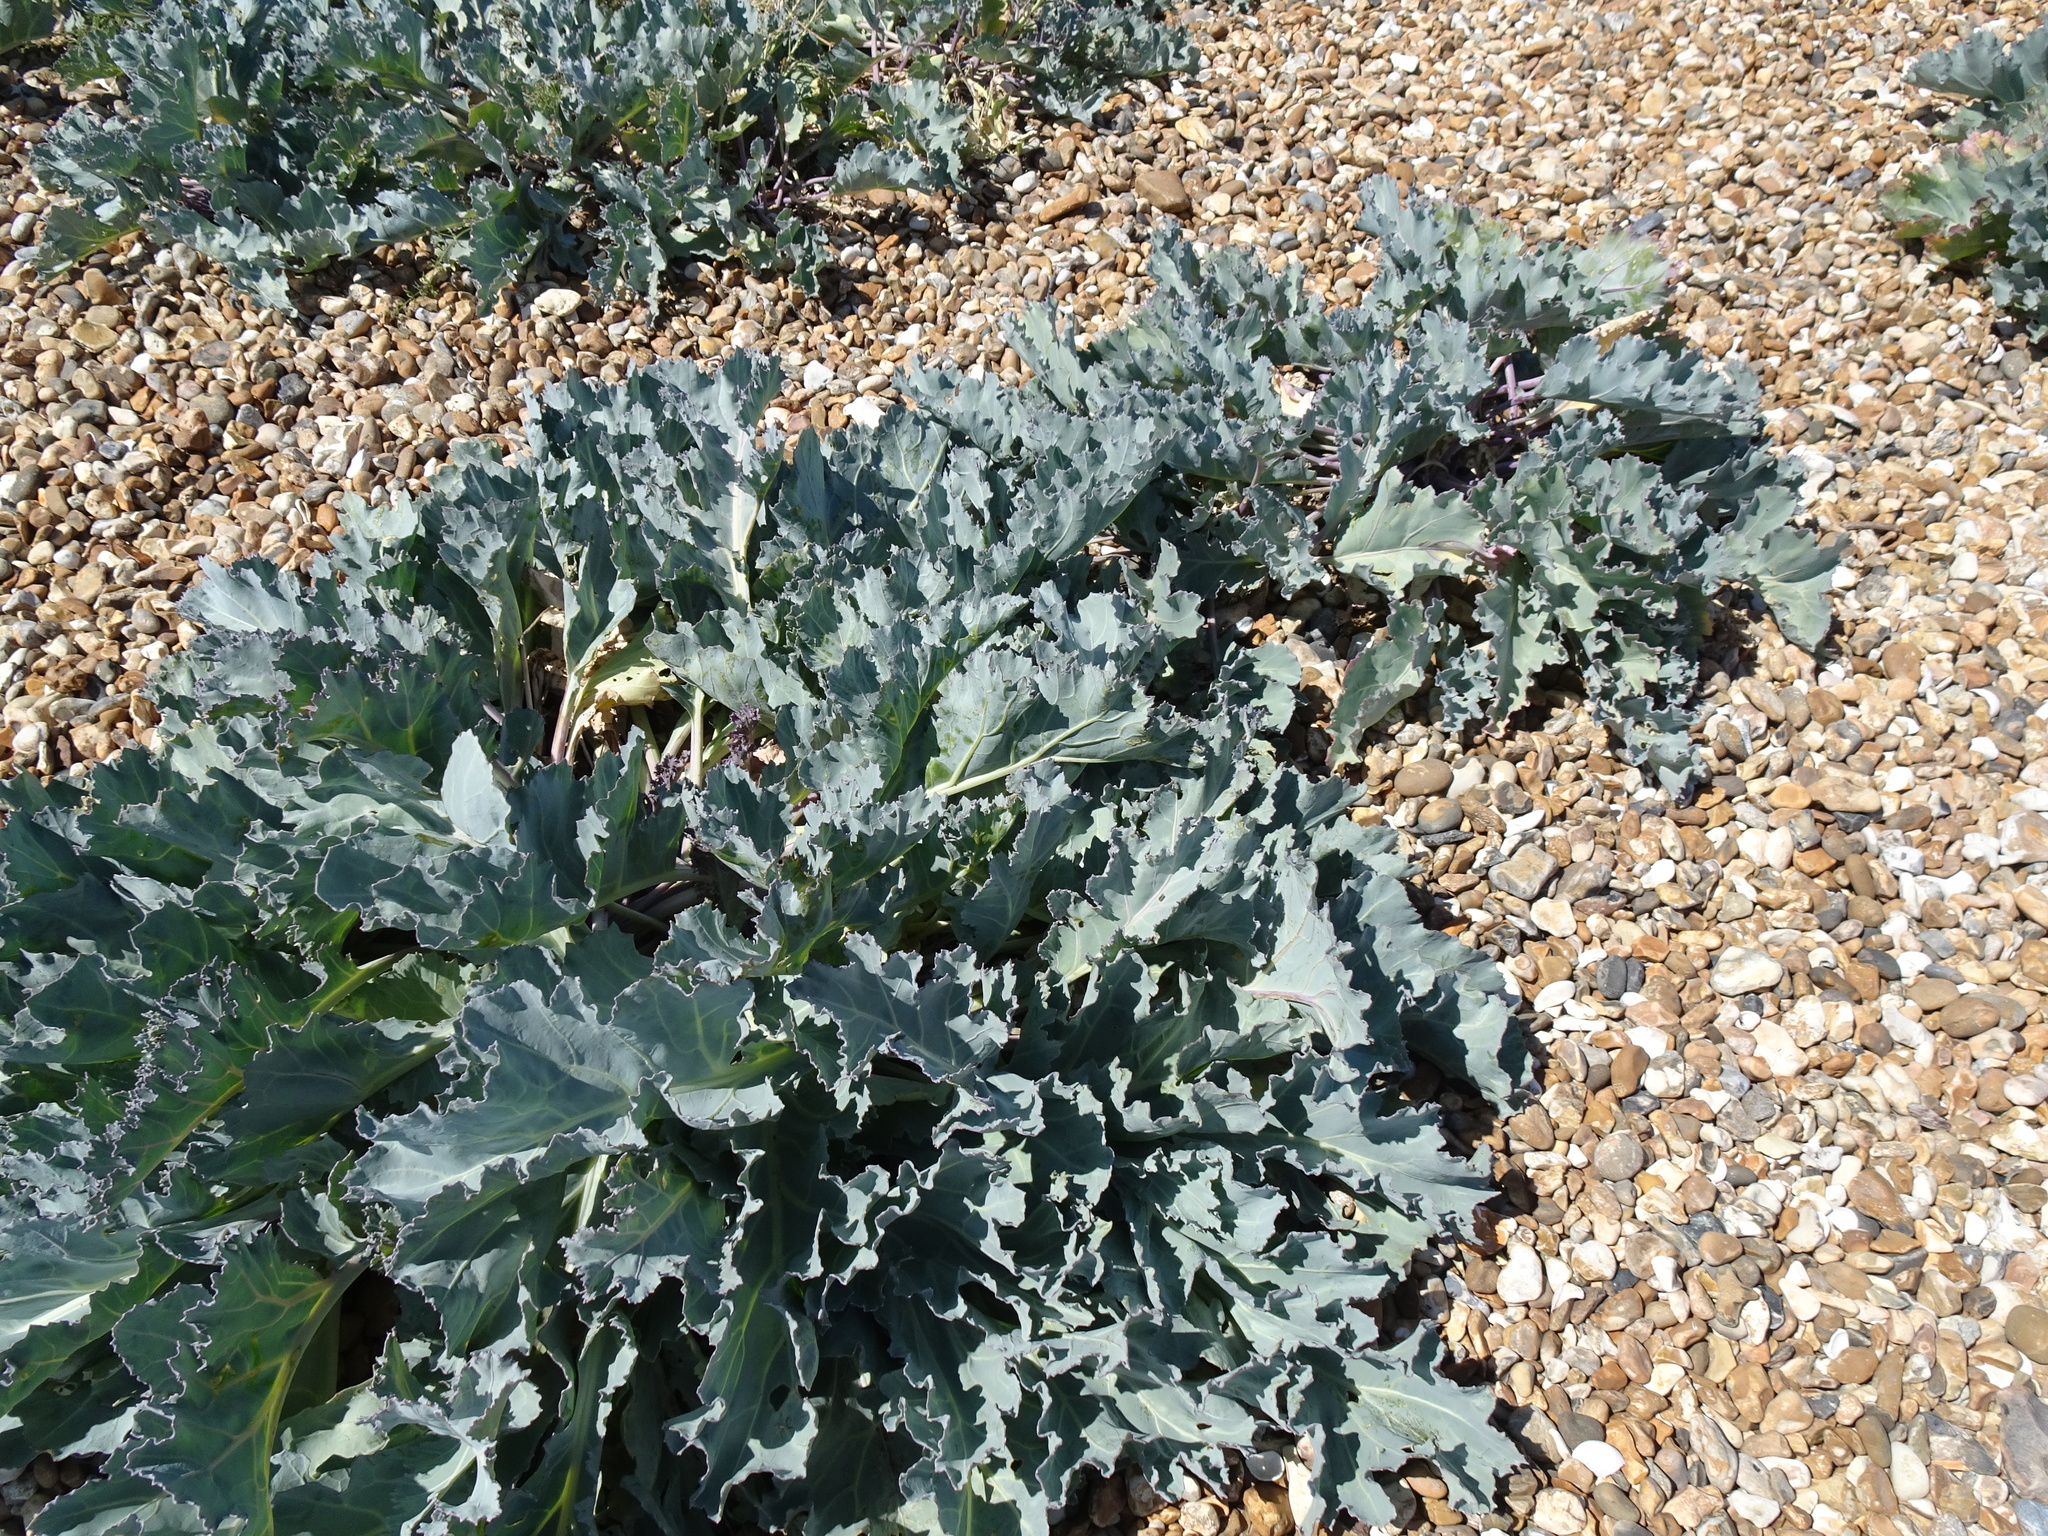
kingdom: Plantae
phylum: Tracheophyta
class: Magnoliopsida
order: Brassicales
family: Brassicaceae
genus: Crambe
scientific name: Crambe maritima
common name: Sea-kale
